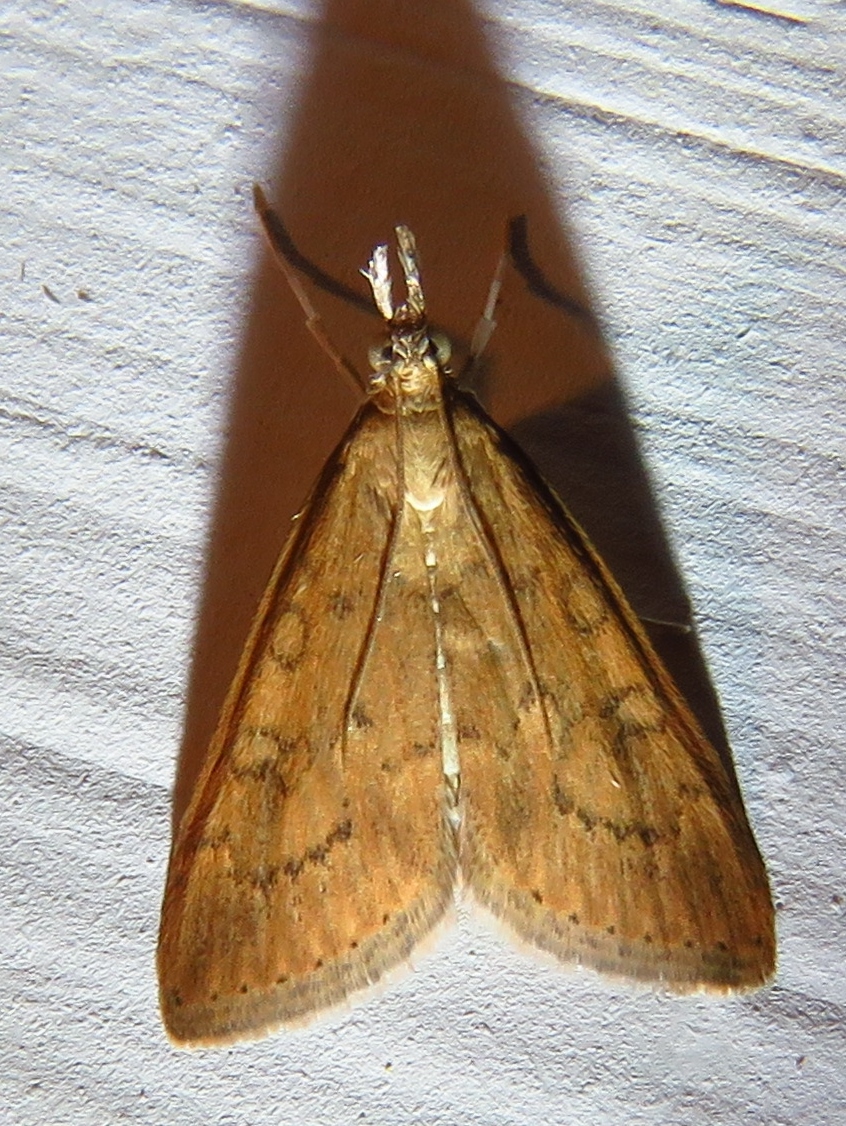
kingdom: Animalia
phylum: Arthropoda
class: Insecta
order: Lepidoptera
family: Crambidae
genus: Udea
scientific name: Udea rubigalis
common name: Celery leaftier moth
